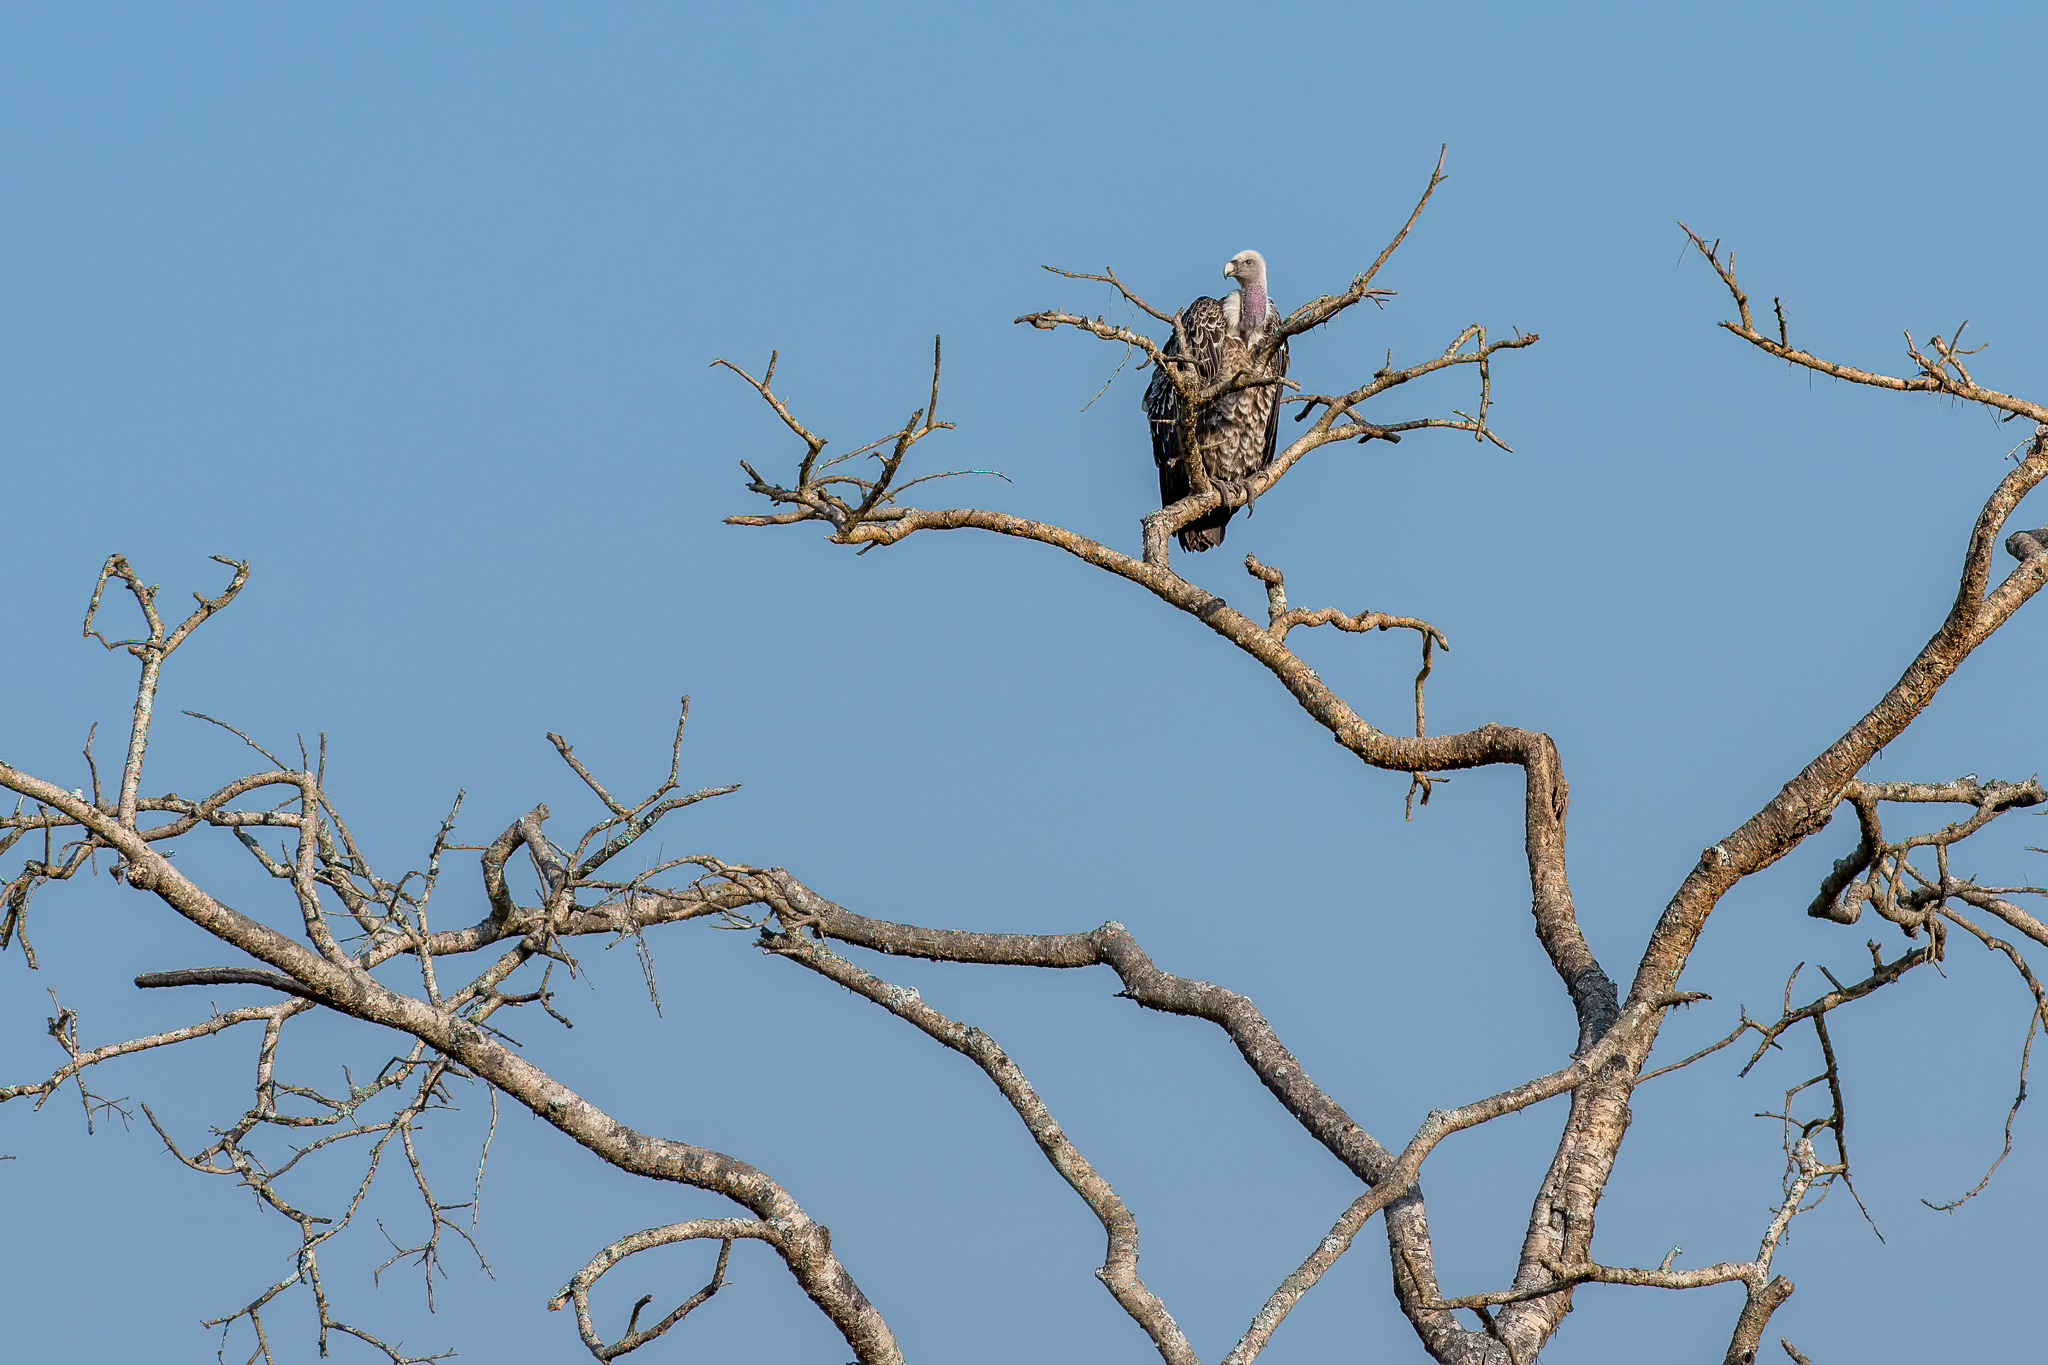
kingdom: Animalia
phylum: Chordata
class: Aves
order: Accipitriformes
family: Accipitridae
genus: Gyps
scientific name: Gyps rueppellii
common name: Rüppell's vulture
